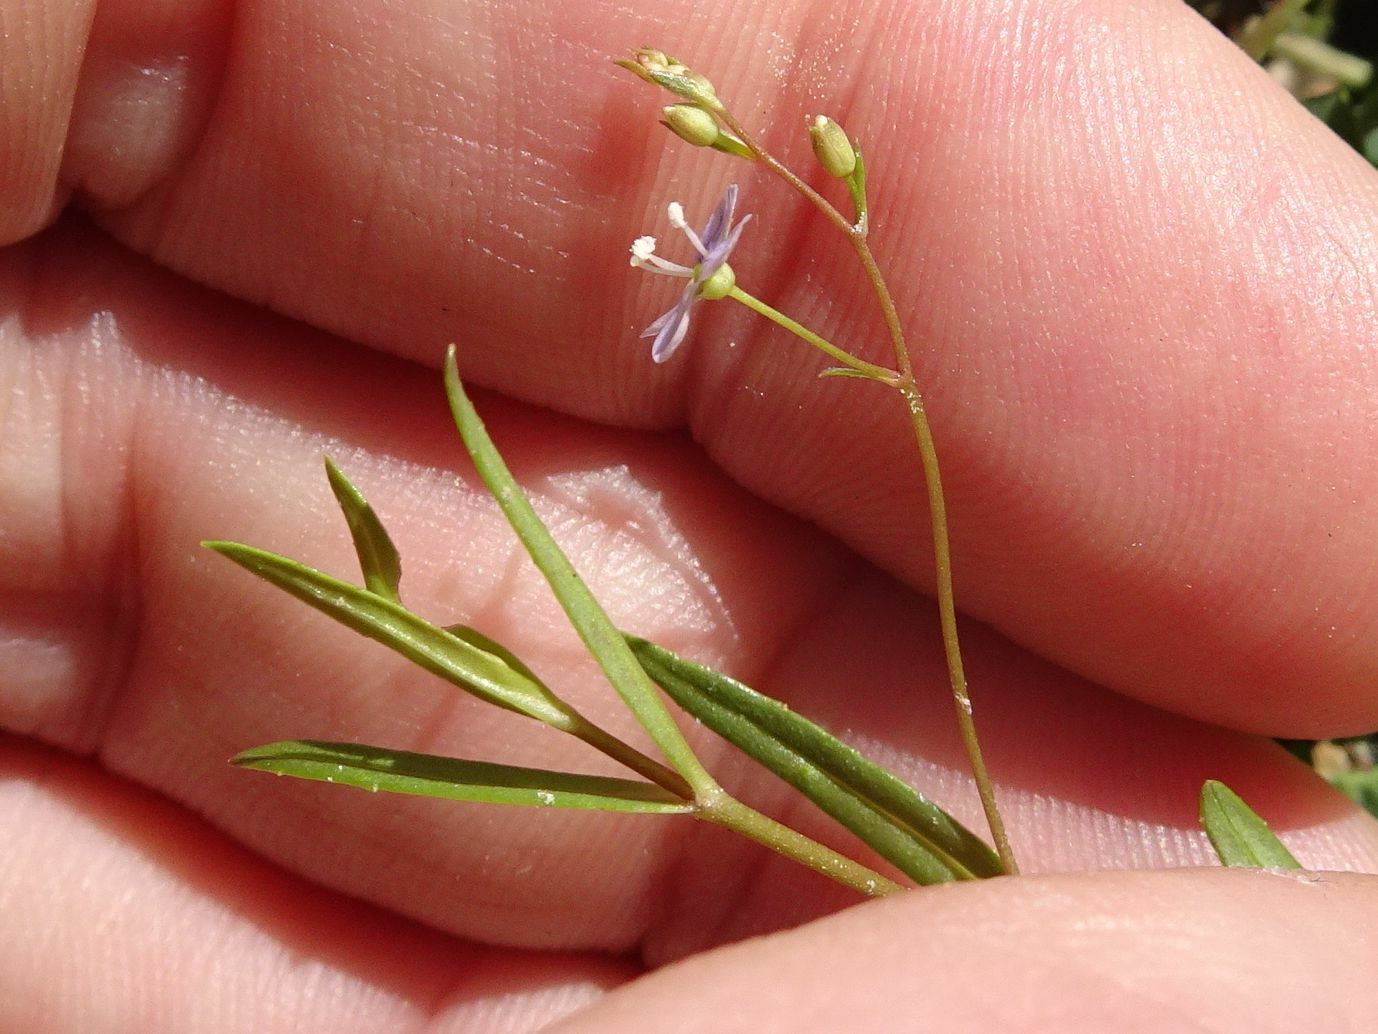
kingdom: Plantae
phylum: Tracheophyta
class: Magnoliopsida
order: Lamiales
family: Plantaginaceae
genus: Veronica
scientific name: Veronica scutellata
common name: Marsh speedwell
